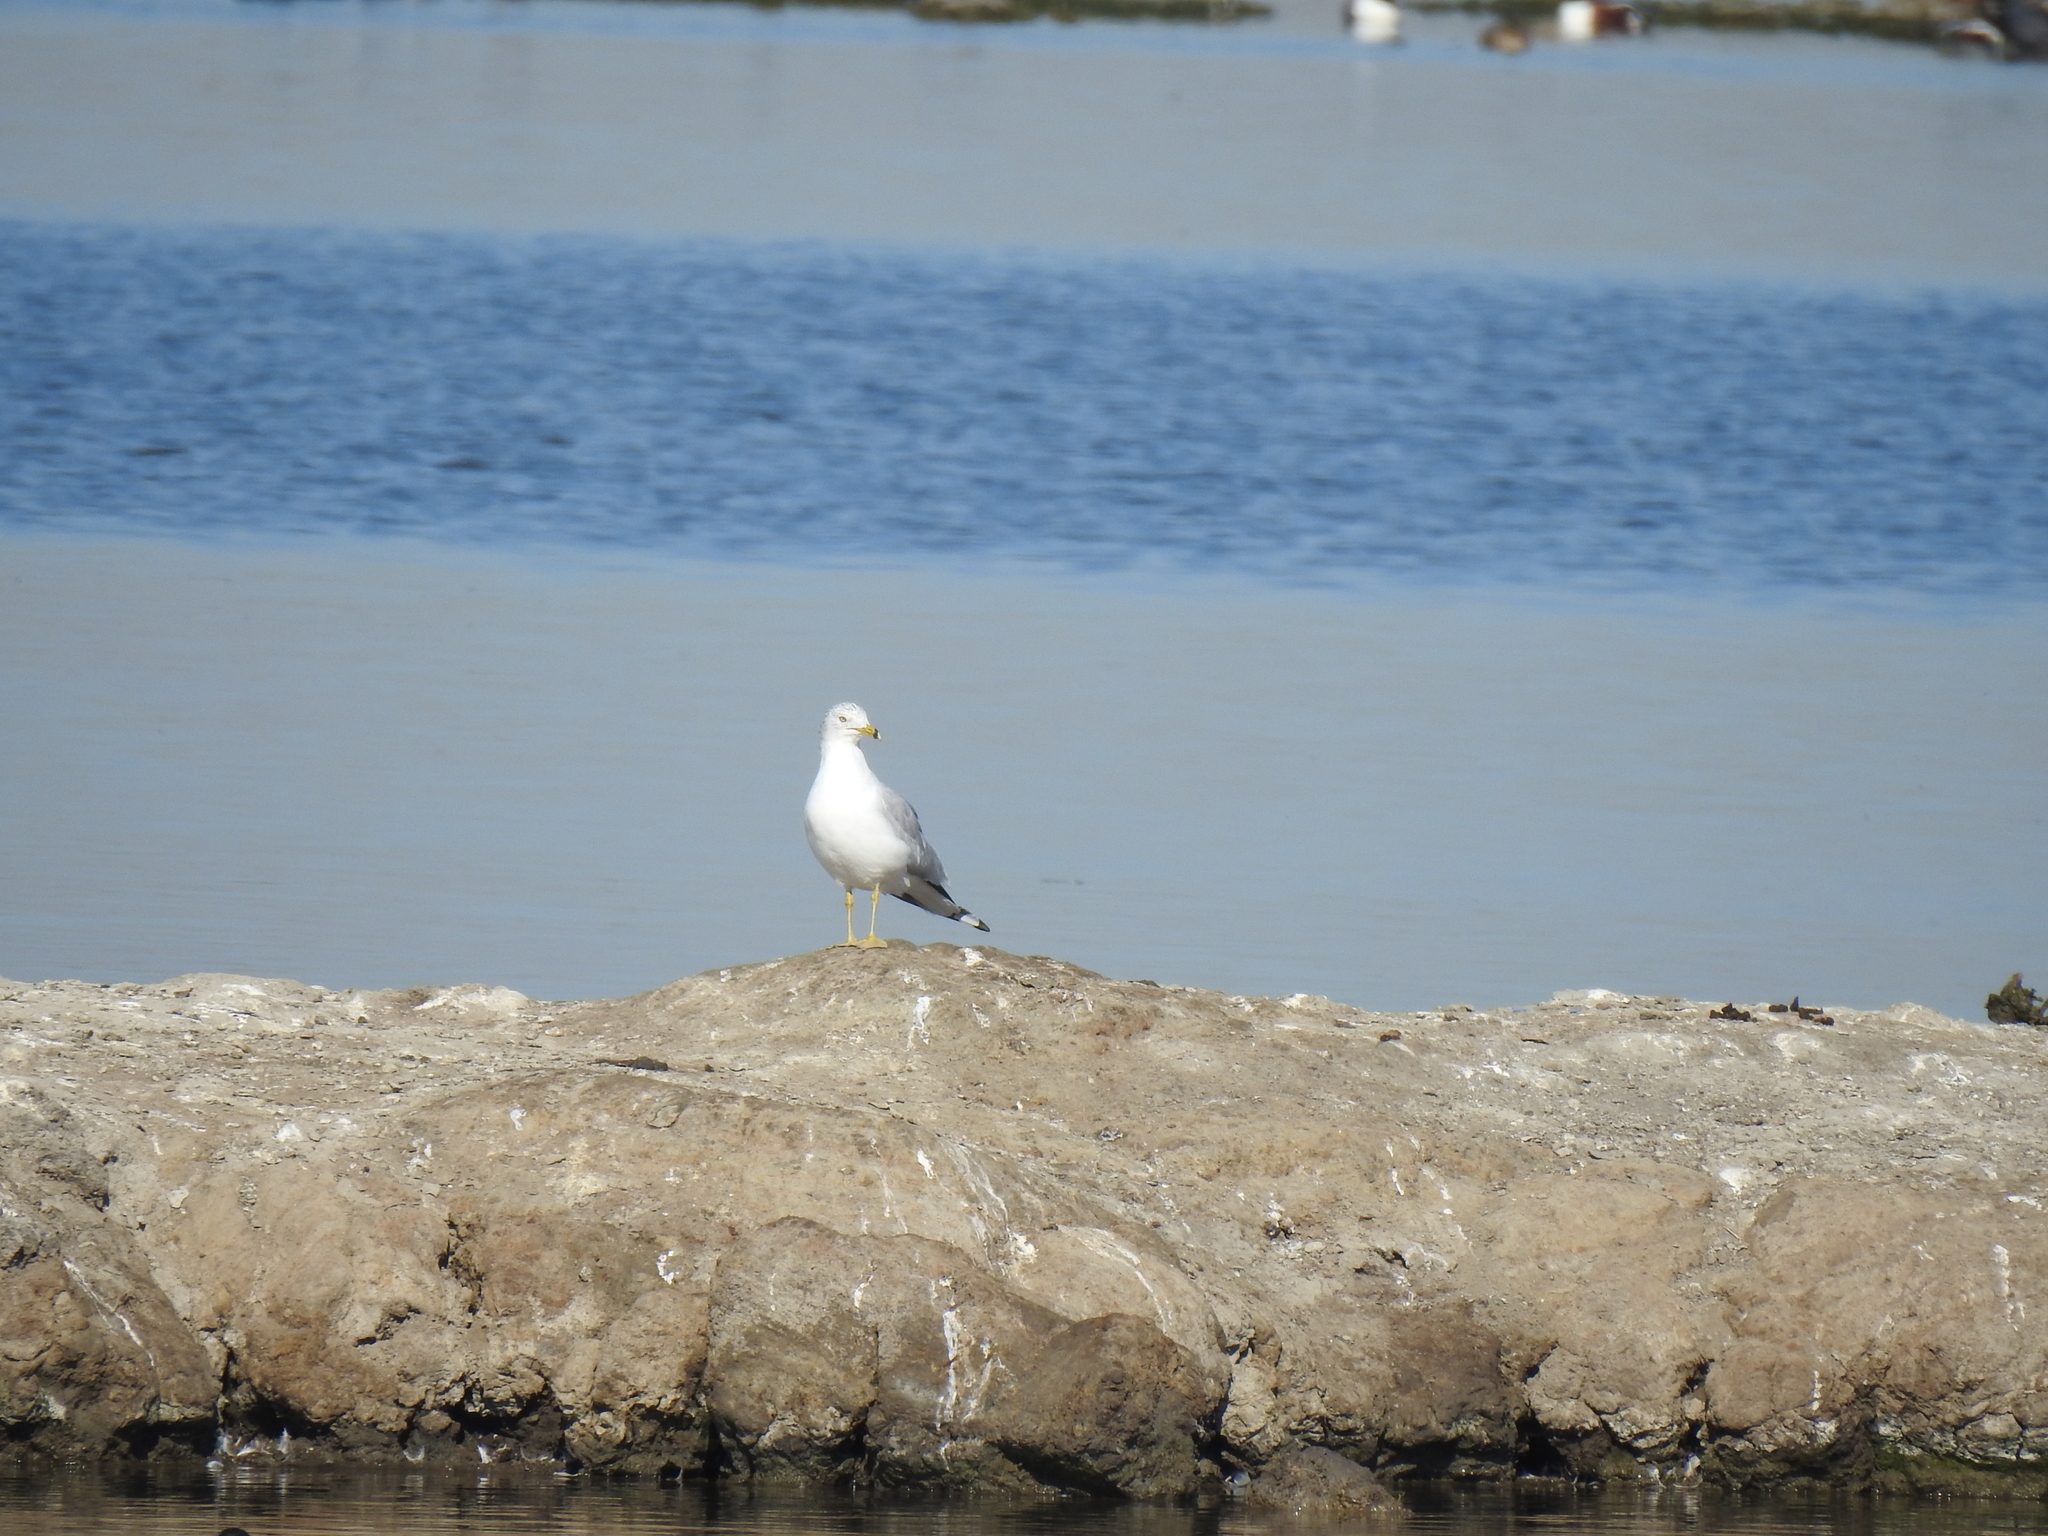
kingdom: Animalia
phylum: Chordata
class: Aves
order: Charadriiformes
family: Laridae
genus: Larus
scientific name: Larus delawarensis
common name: Ring-billed gull
